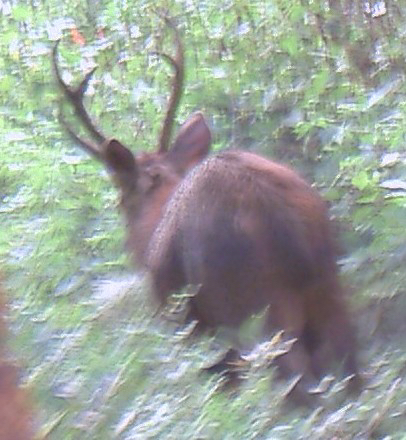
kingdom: Animalia
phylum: Chordata
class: Mammalia
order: Artiodactyla
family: Cervidae
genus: Rusa
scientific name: Rusa unicolor
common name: Sambar
